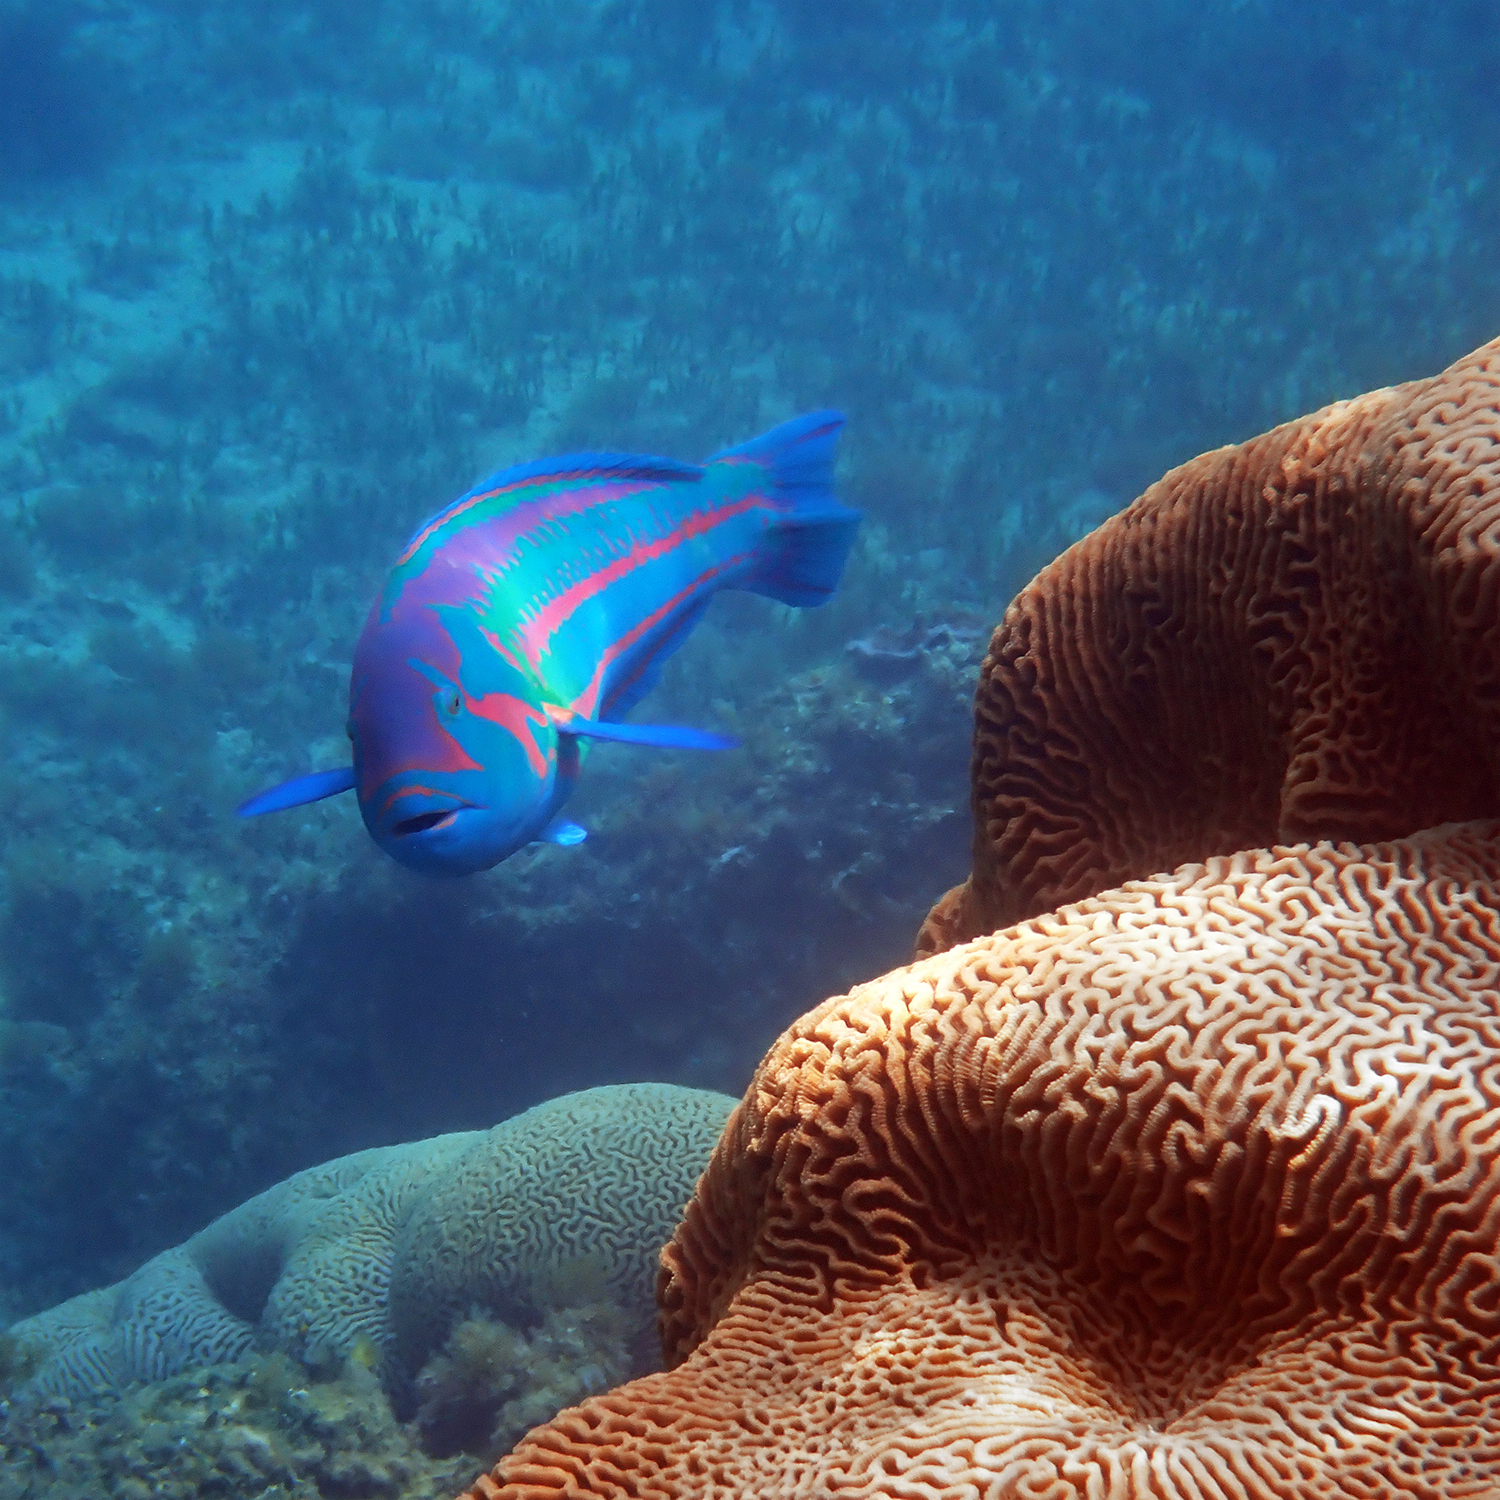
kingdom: Animalia
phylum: Chordata
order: Perciformes
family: Labridae
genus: Thalassoma
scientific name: Thalassoma purpureum
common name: Parrotfish
